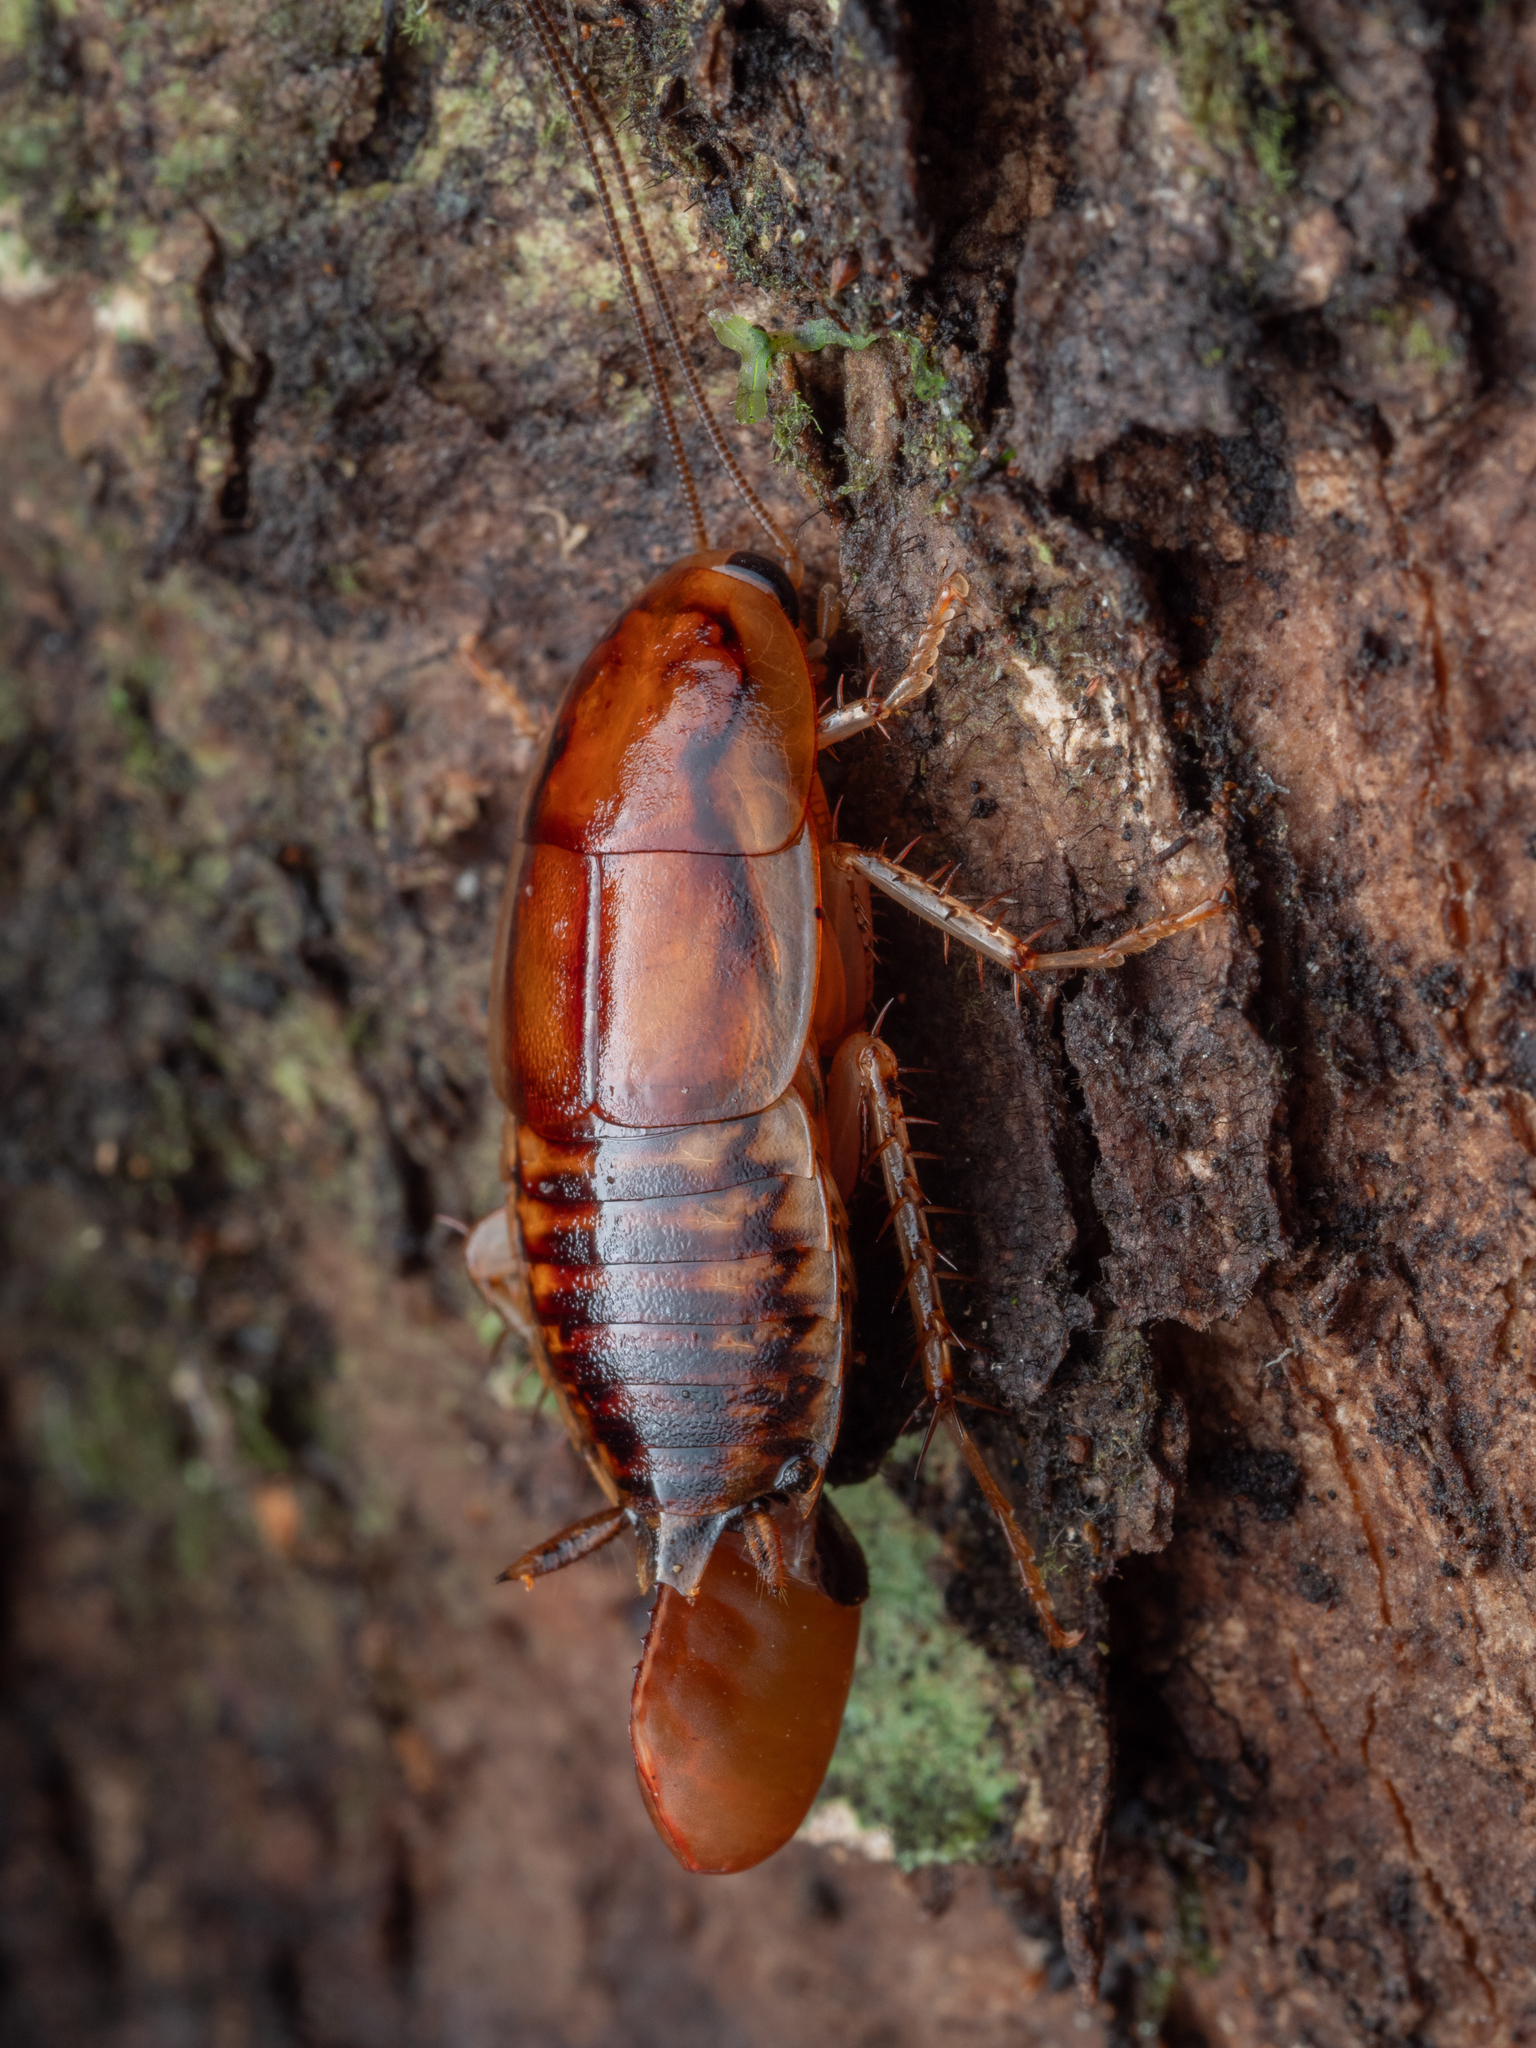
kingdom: Animalia
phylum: Arthropoda
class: Insecta
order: Blattodea
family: Blattidae
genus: Celatoblatta
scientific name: Celatoblatta undulivitta
